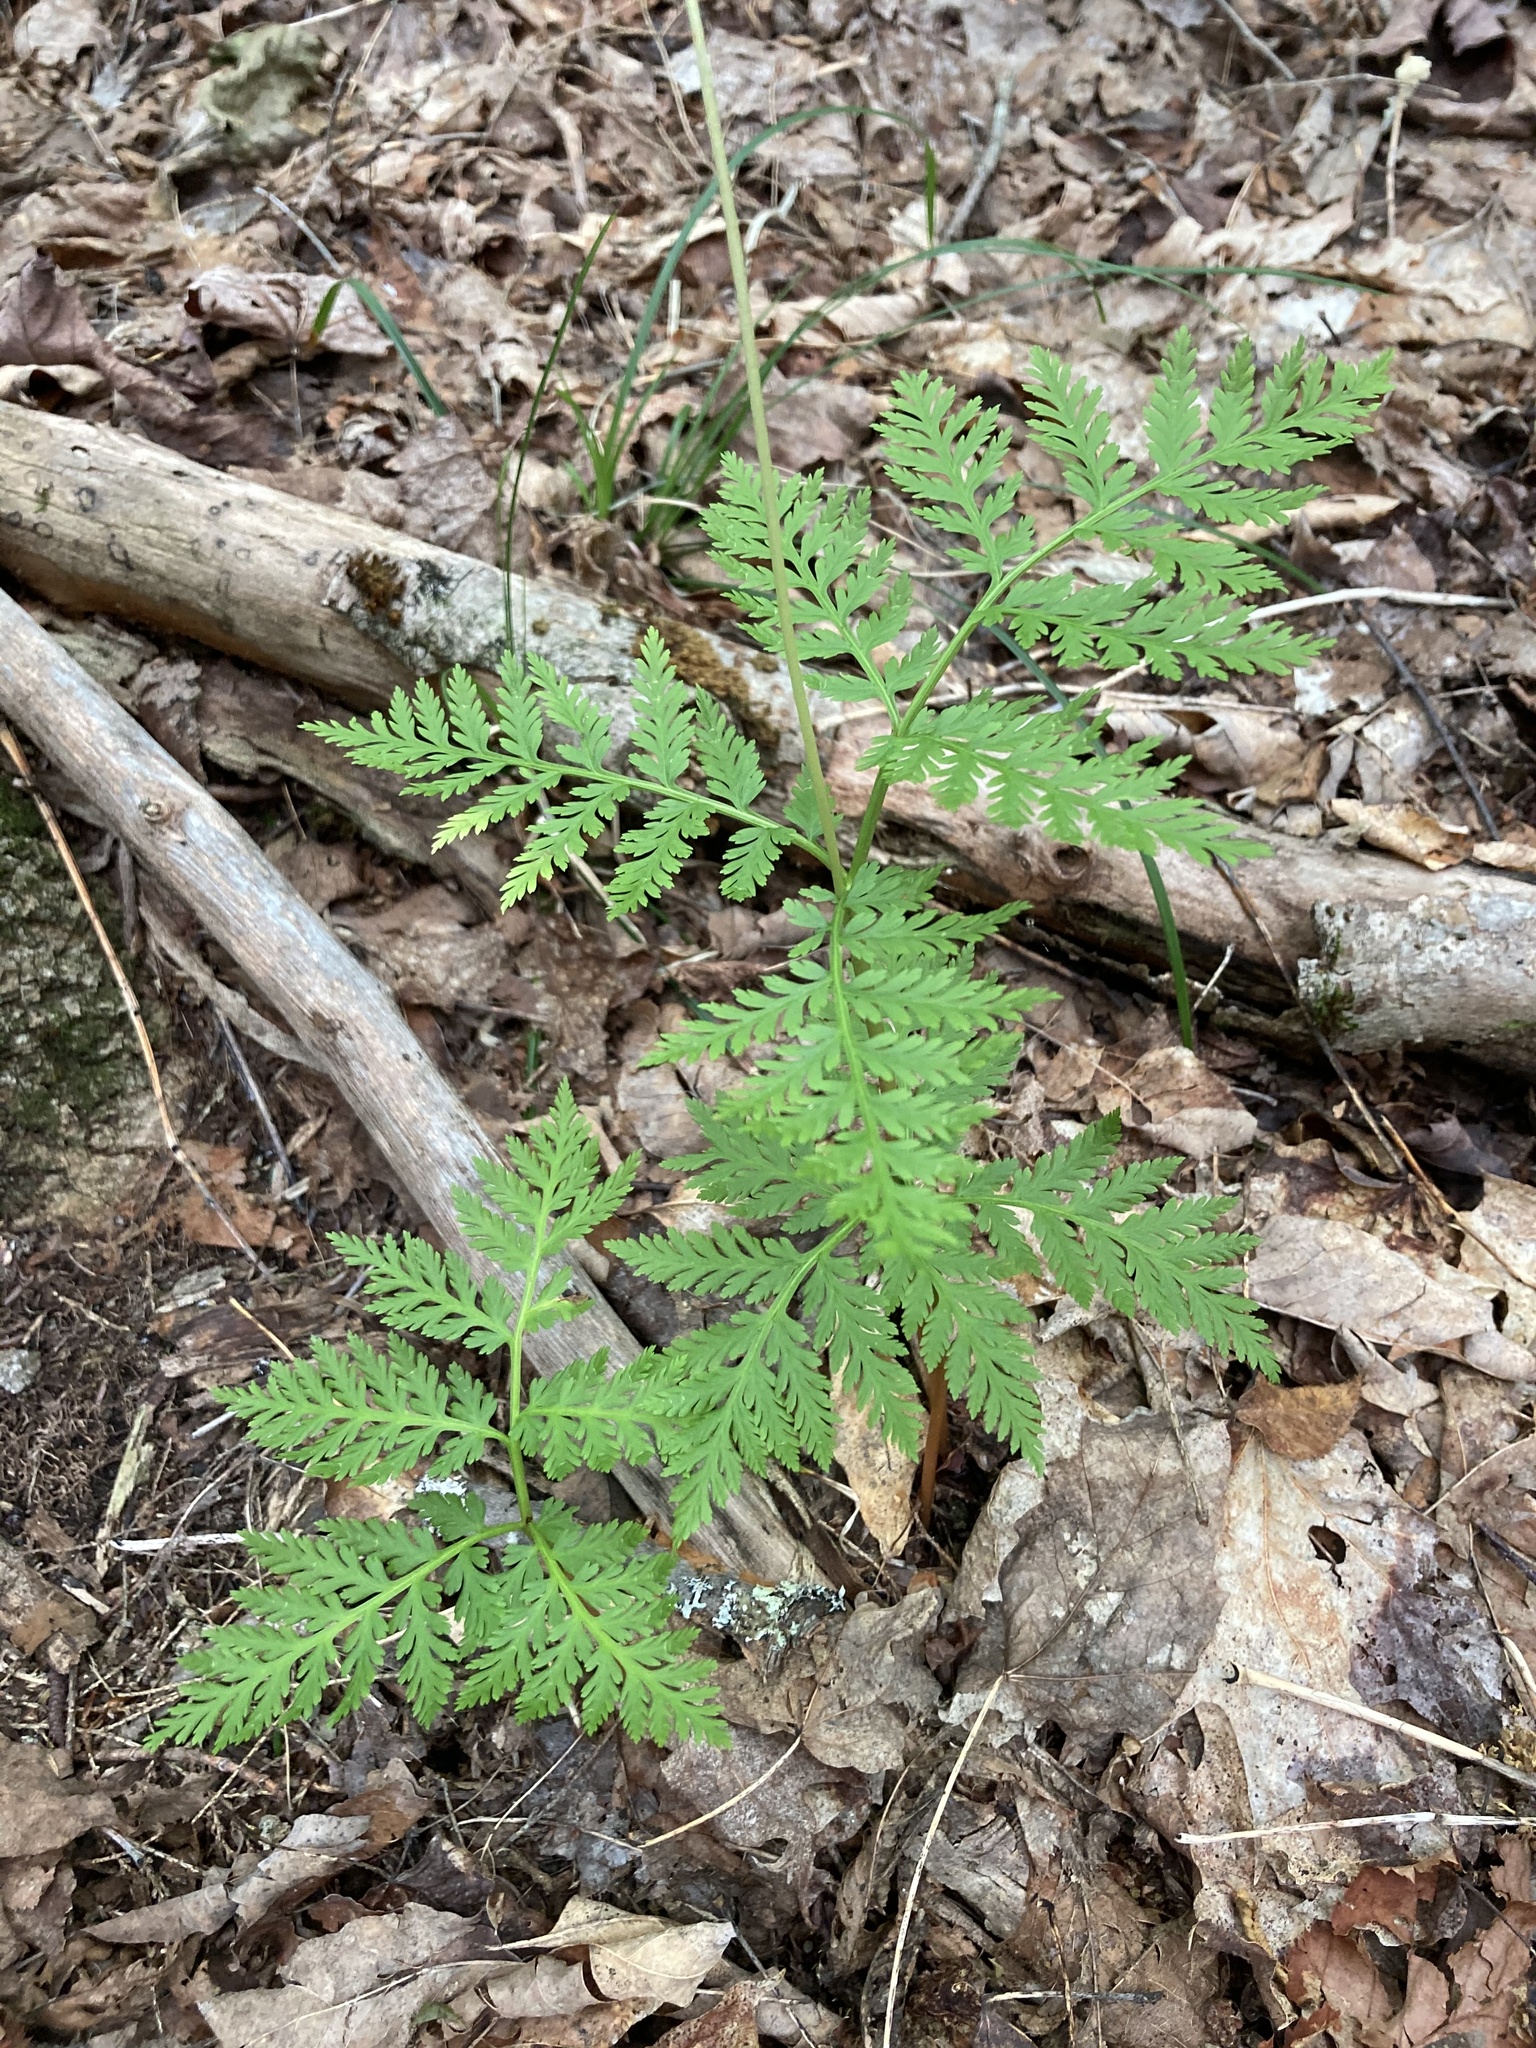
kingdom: Plantae
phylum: Tracheophyta
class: Polypodiopsida
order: Ophioglossales
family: Ophioglossaceae
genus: Botrypus
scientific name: Botrypus virginianus
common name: Common grapefern
